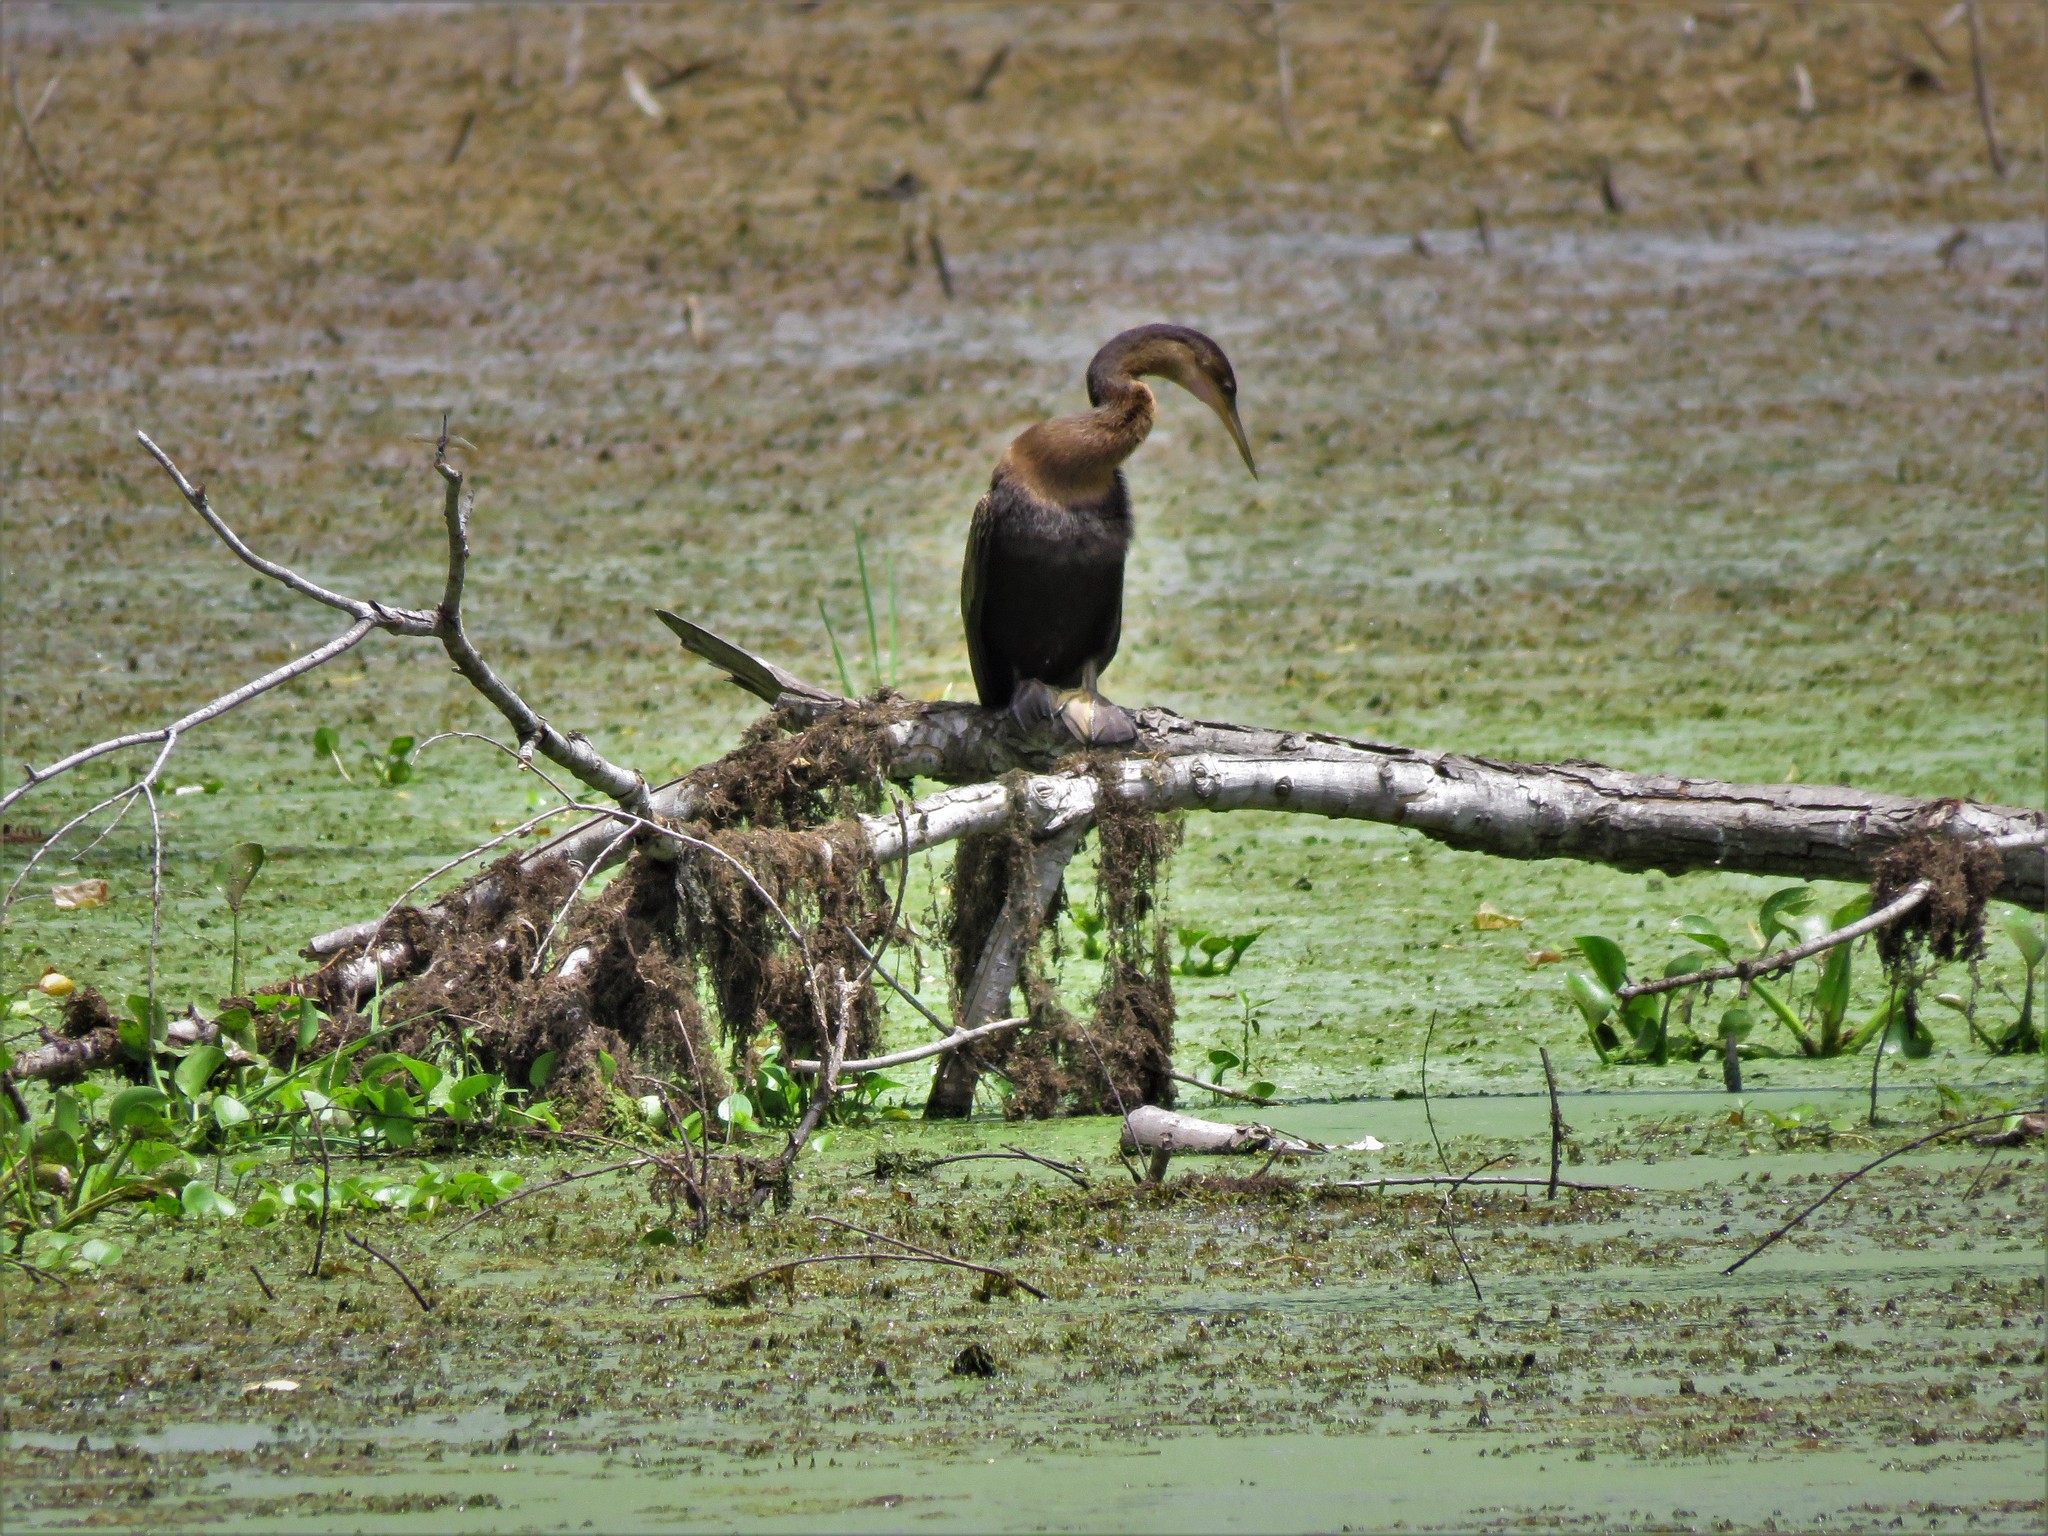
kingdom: Animalia
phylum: Chordata
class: Aves
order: Suliformes
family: Anhingidae
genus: Anhinga
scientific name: Anhinga anhinga
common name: Anhinga
